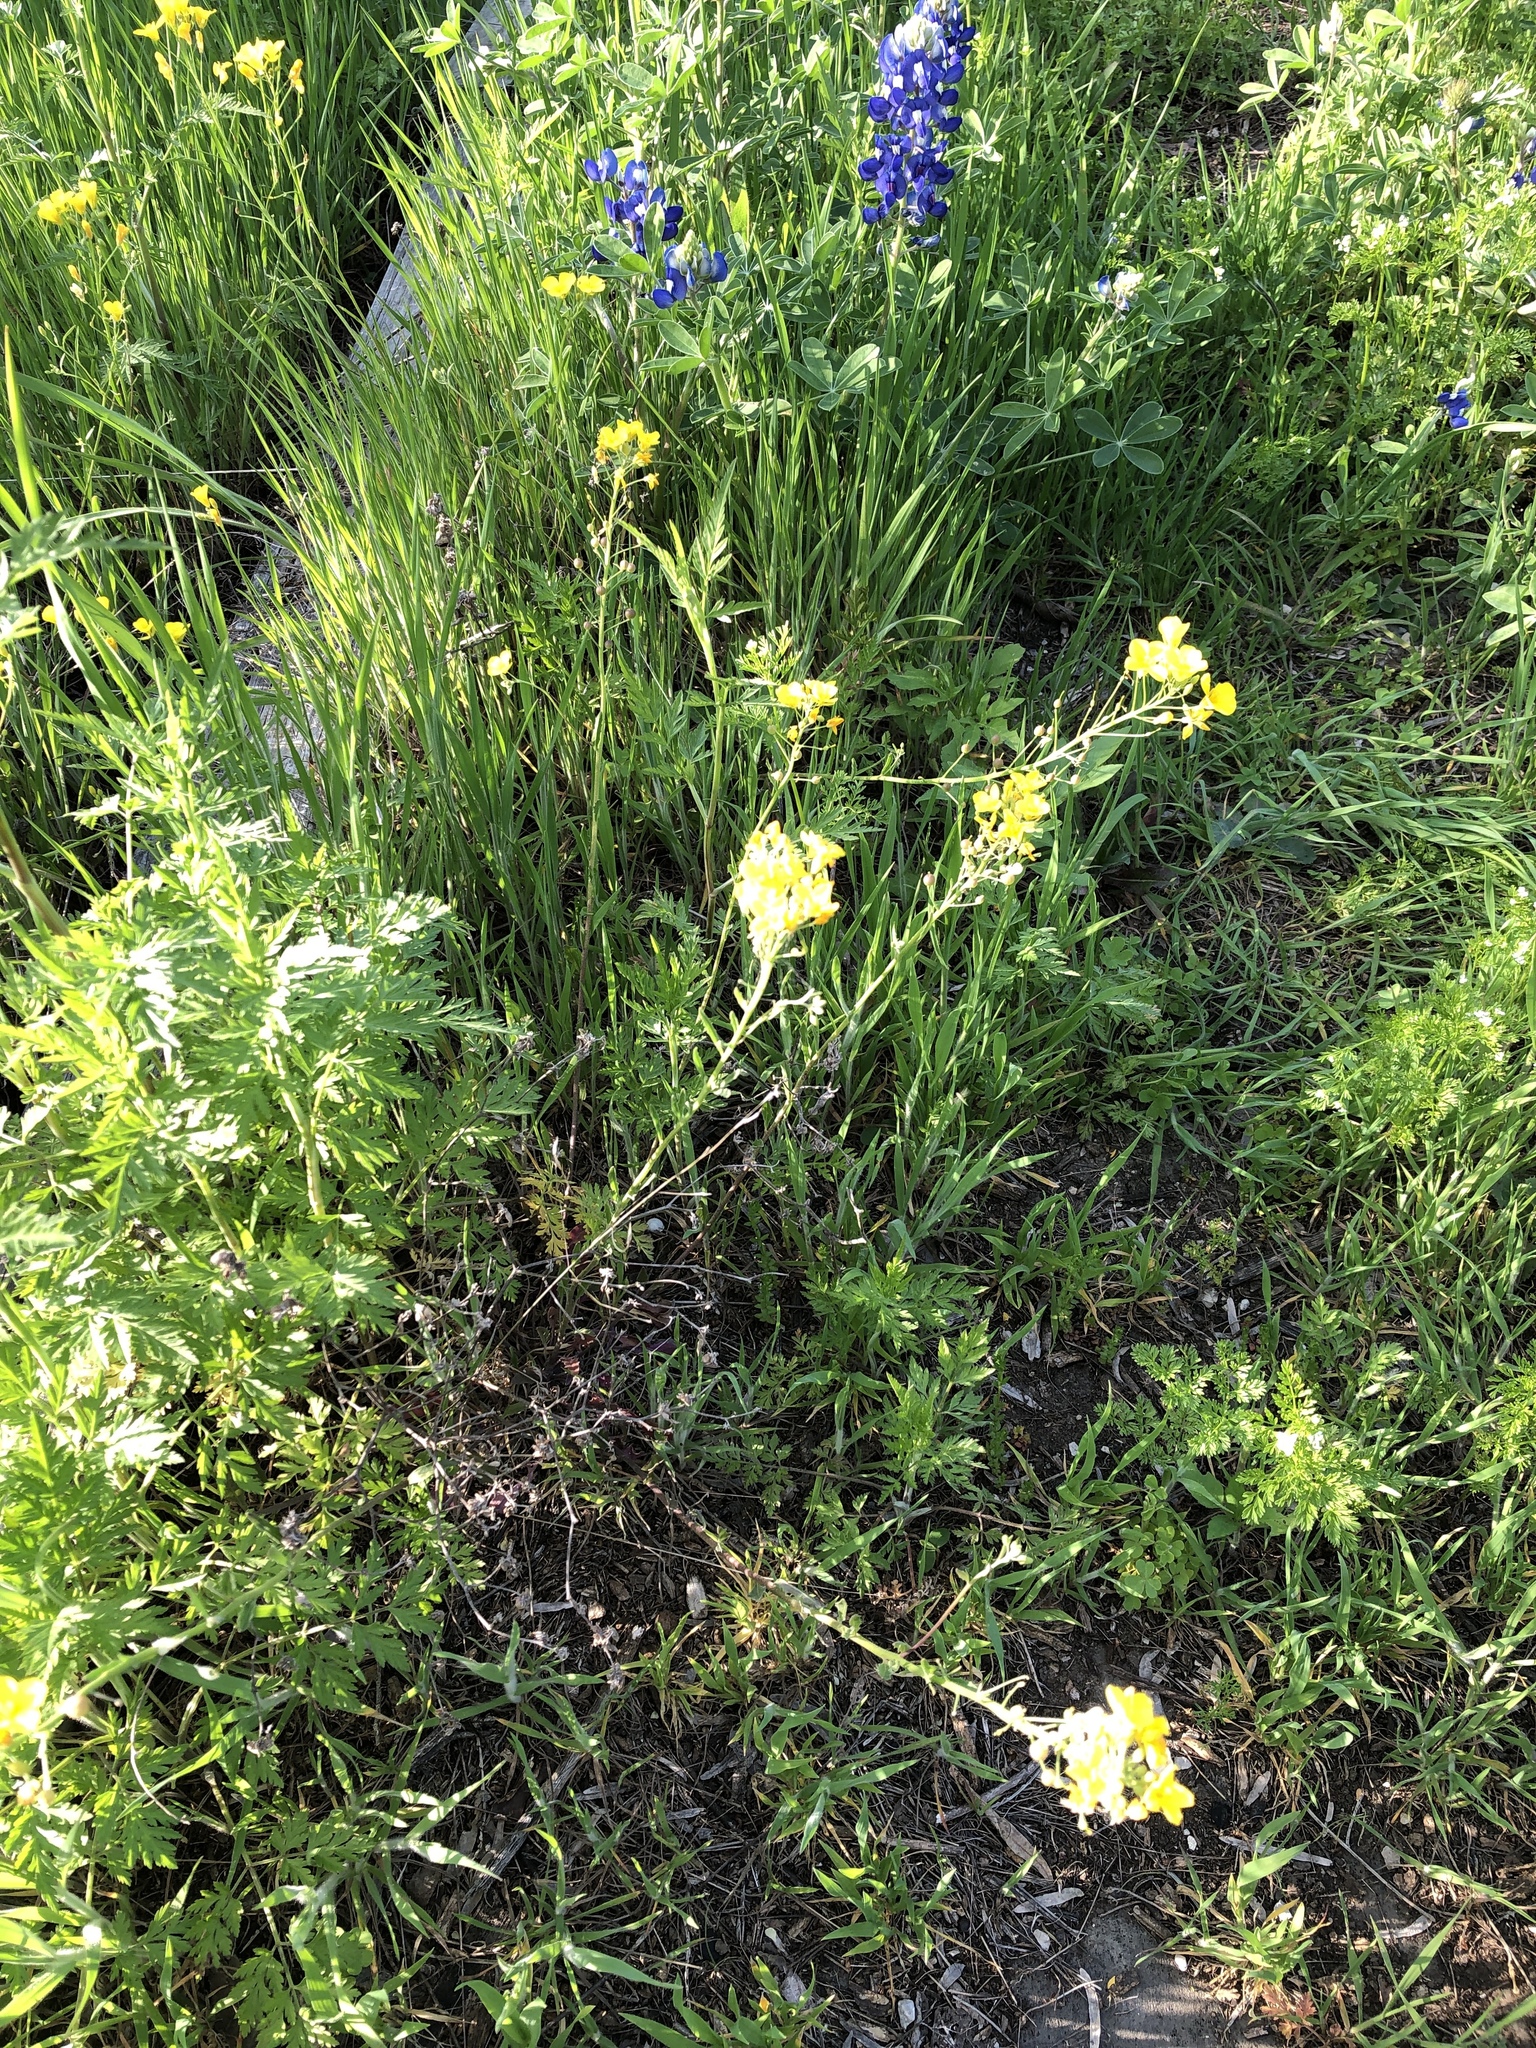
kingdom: Plantae
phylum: Tracheophyta
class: Magnoliopsida
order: Brassicales
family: Brassicaceae
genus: Physaria
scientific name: Physaria gracilis
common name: Spreading bladderpod
